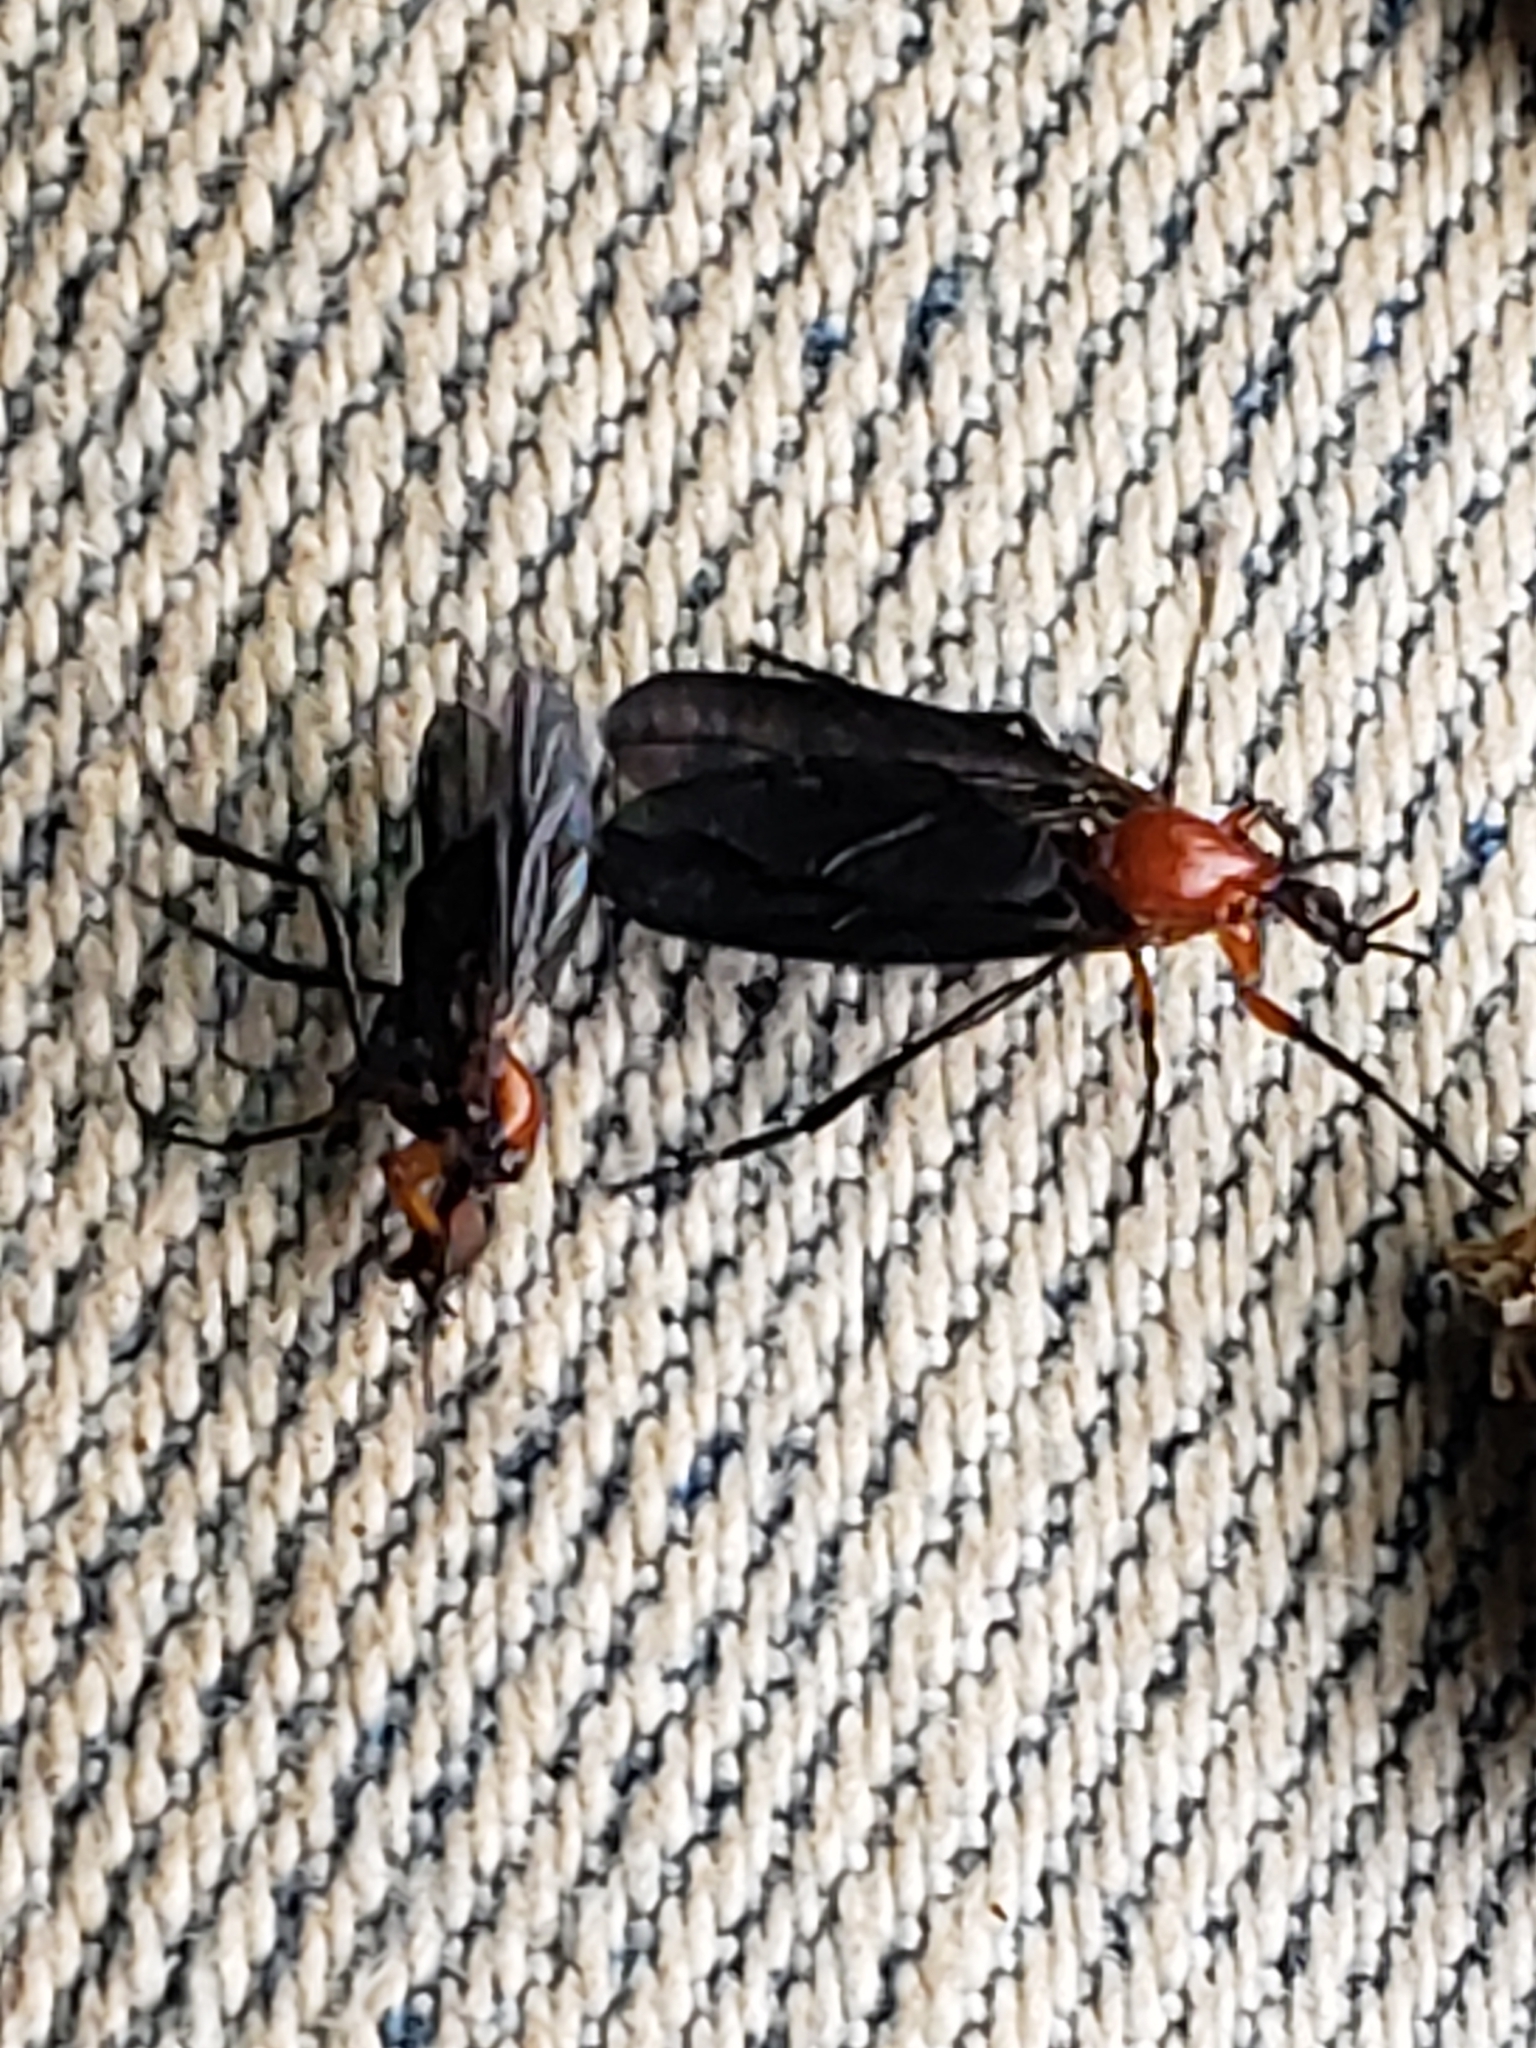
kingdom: Animalia
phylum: Arthropoda
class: Insecta
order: Diptera
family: Bibionidae
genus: Dilophus
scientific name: Dilophus spinipes
